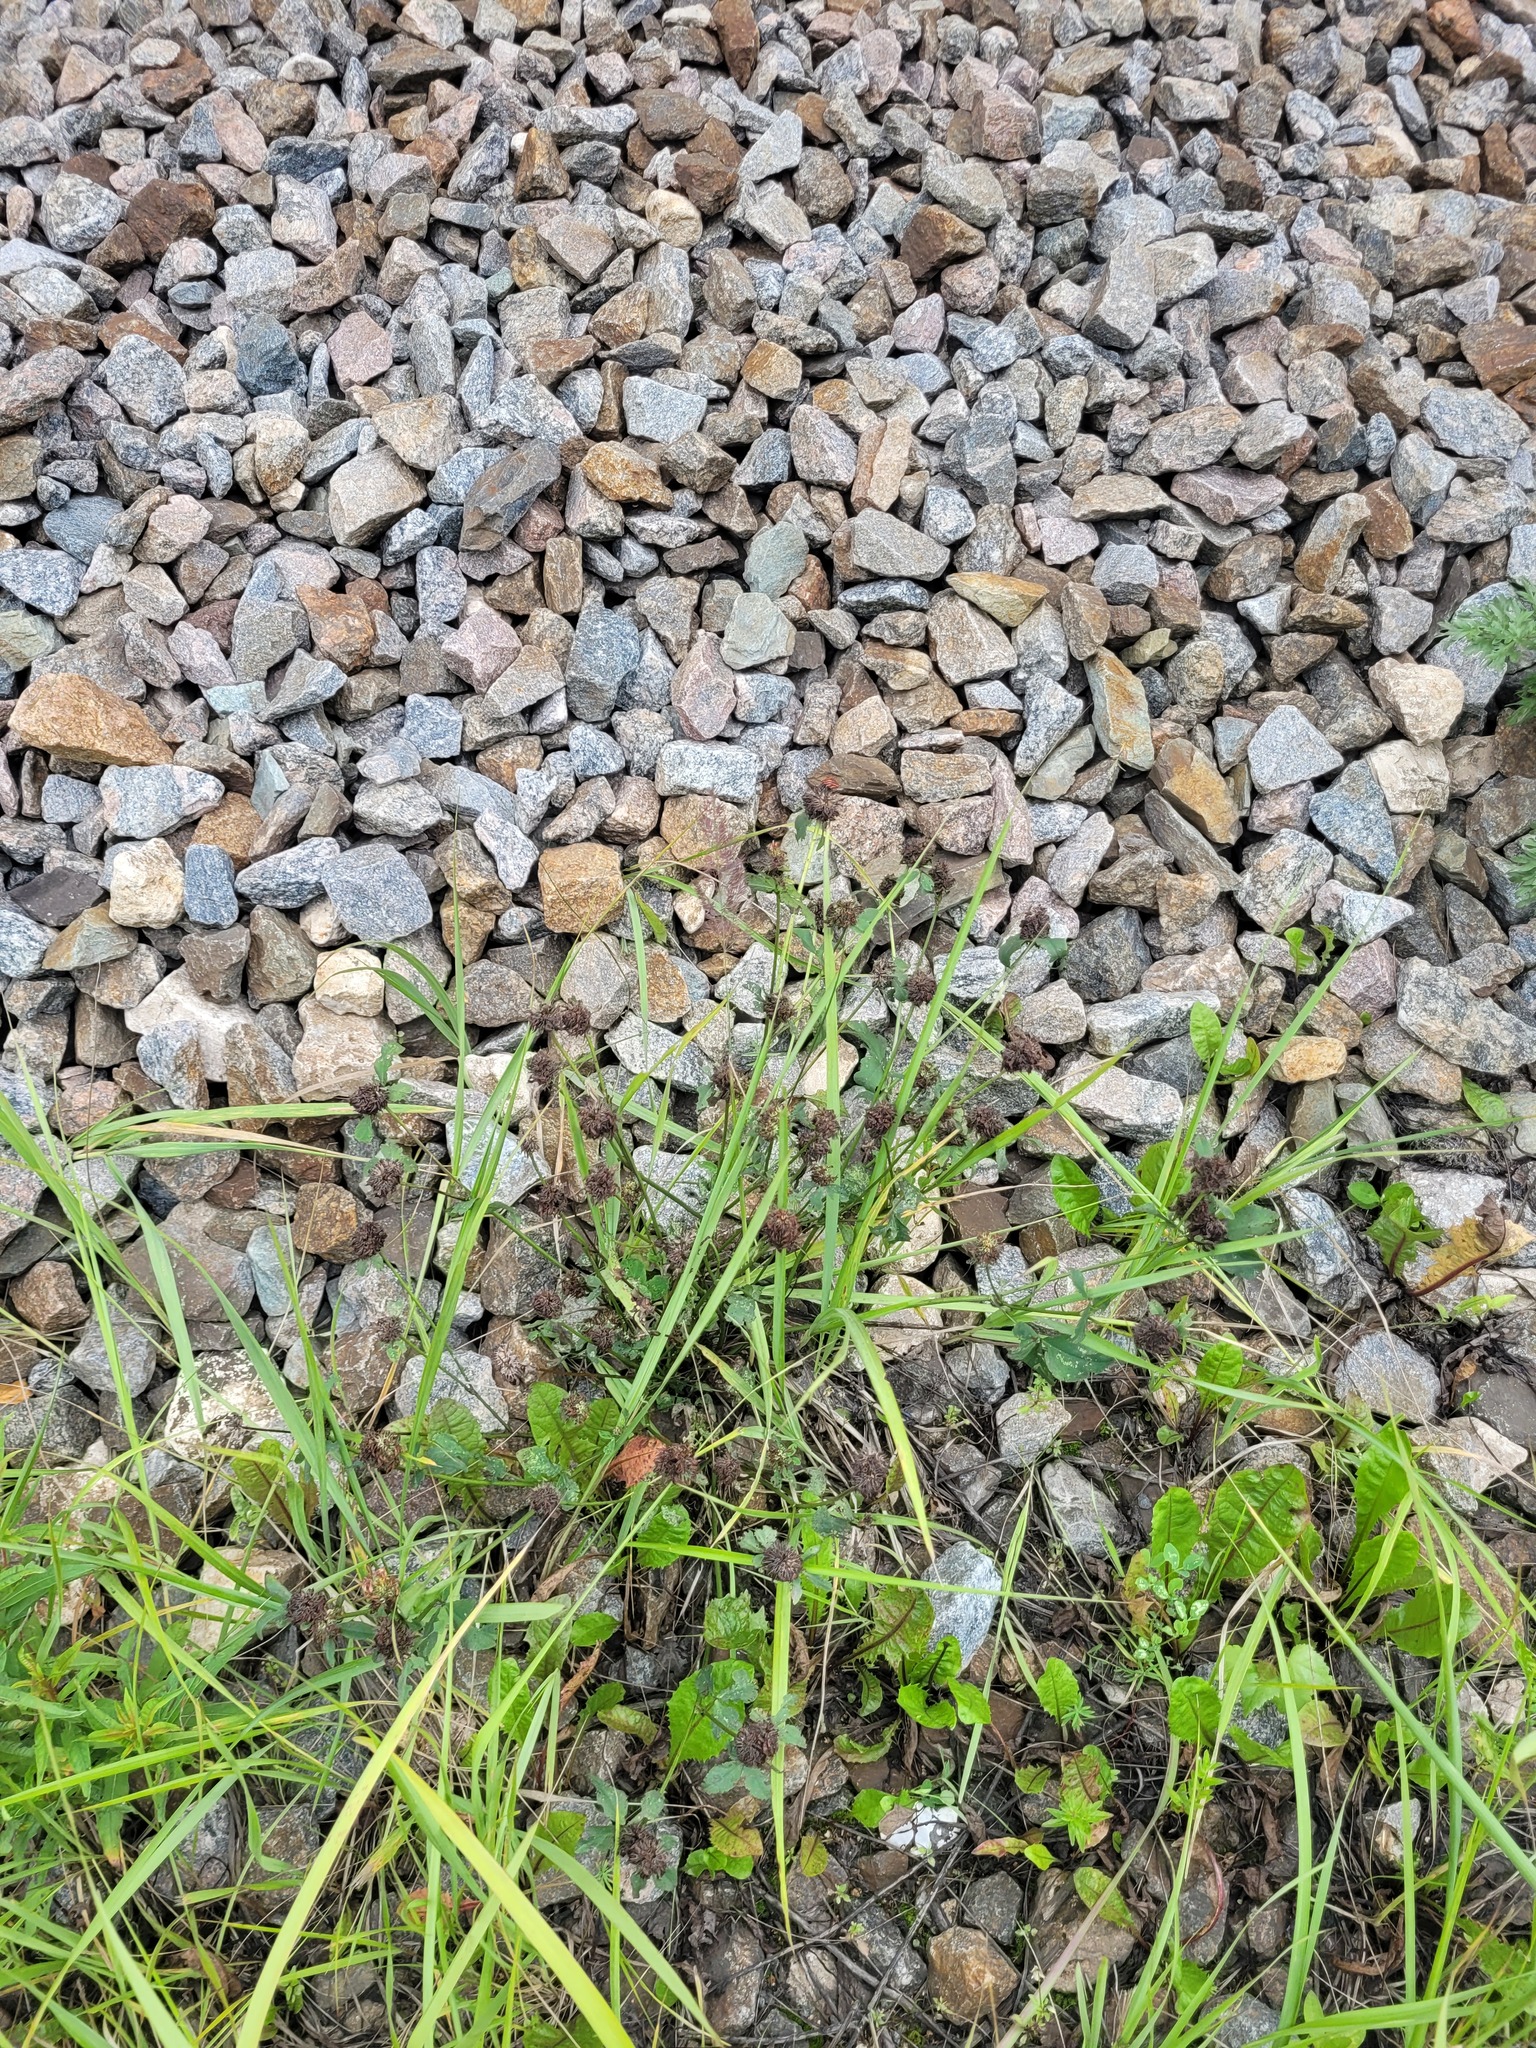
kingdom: Plantae
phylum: Tracheophyta
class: Magnoliopsida
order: Fabales
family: Fabaceae
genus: Trifolium
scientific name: Trifolium pratense
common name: Red clover
